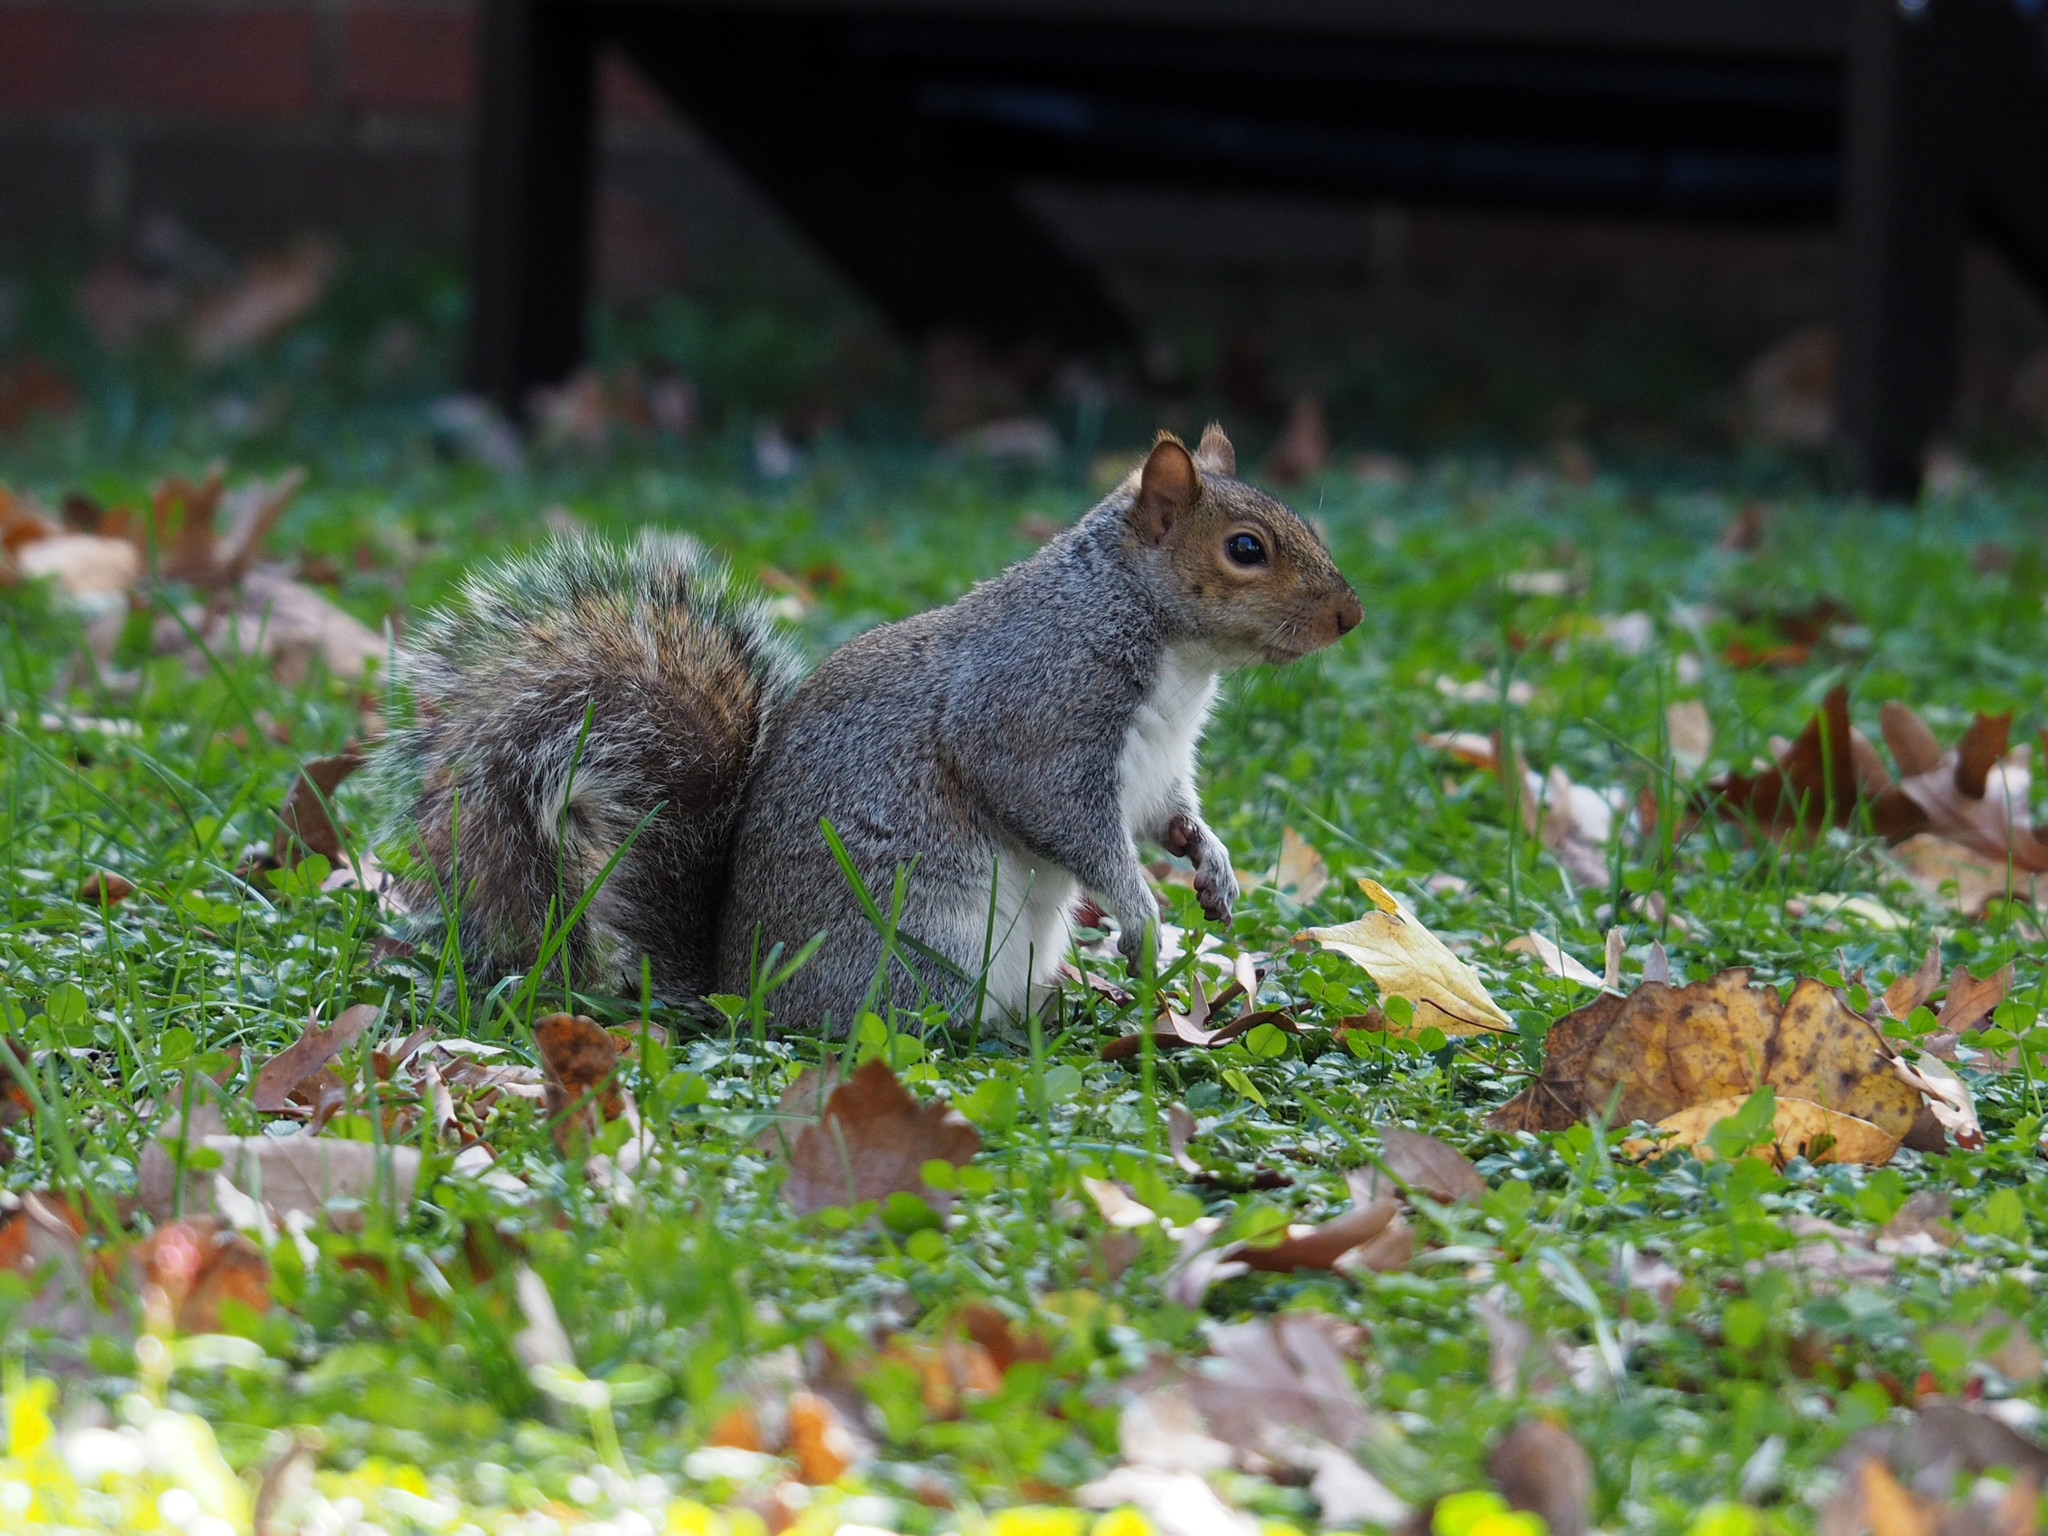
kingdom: Animalia
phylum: Chordata
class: Mammalia
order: Rodentia
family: Sciuridae
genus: Sciurus
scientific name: Sciurus carolinensis
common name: Eastern gray squirrel
